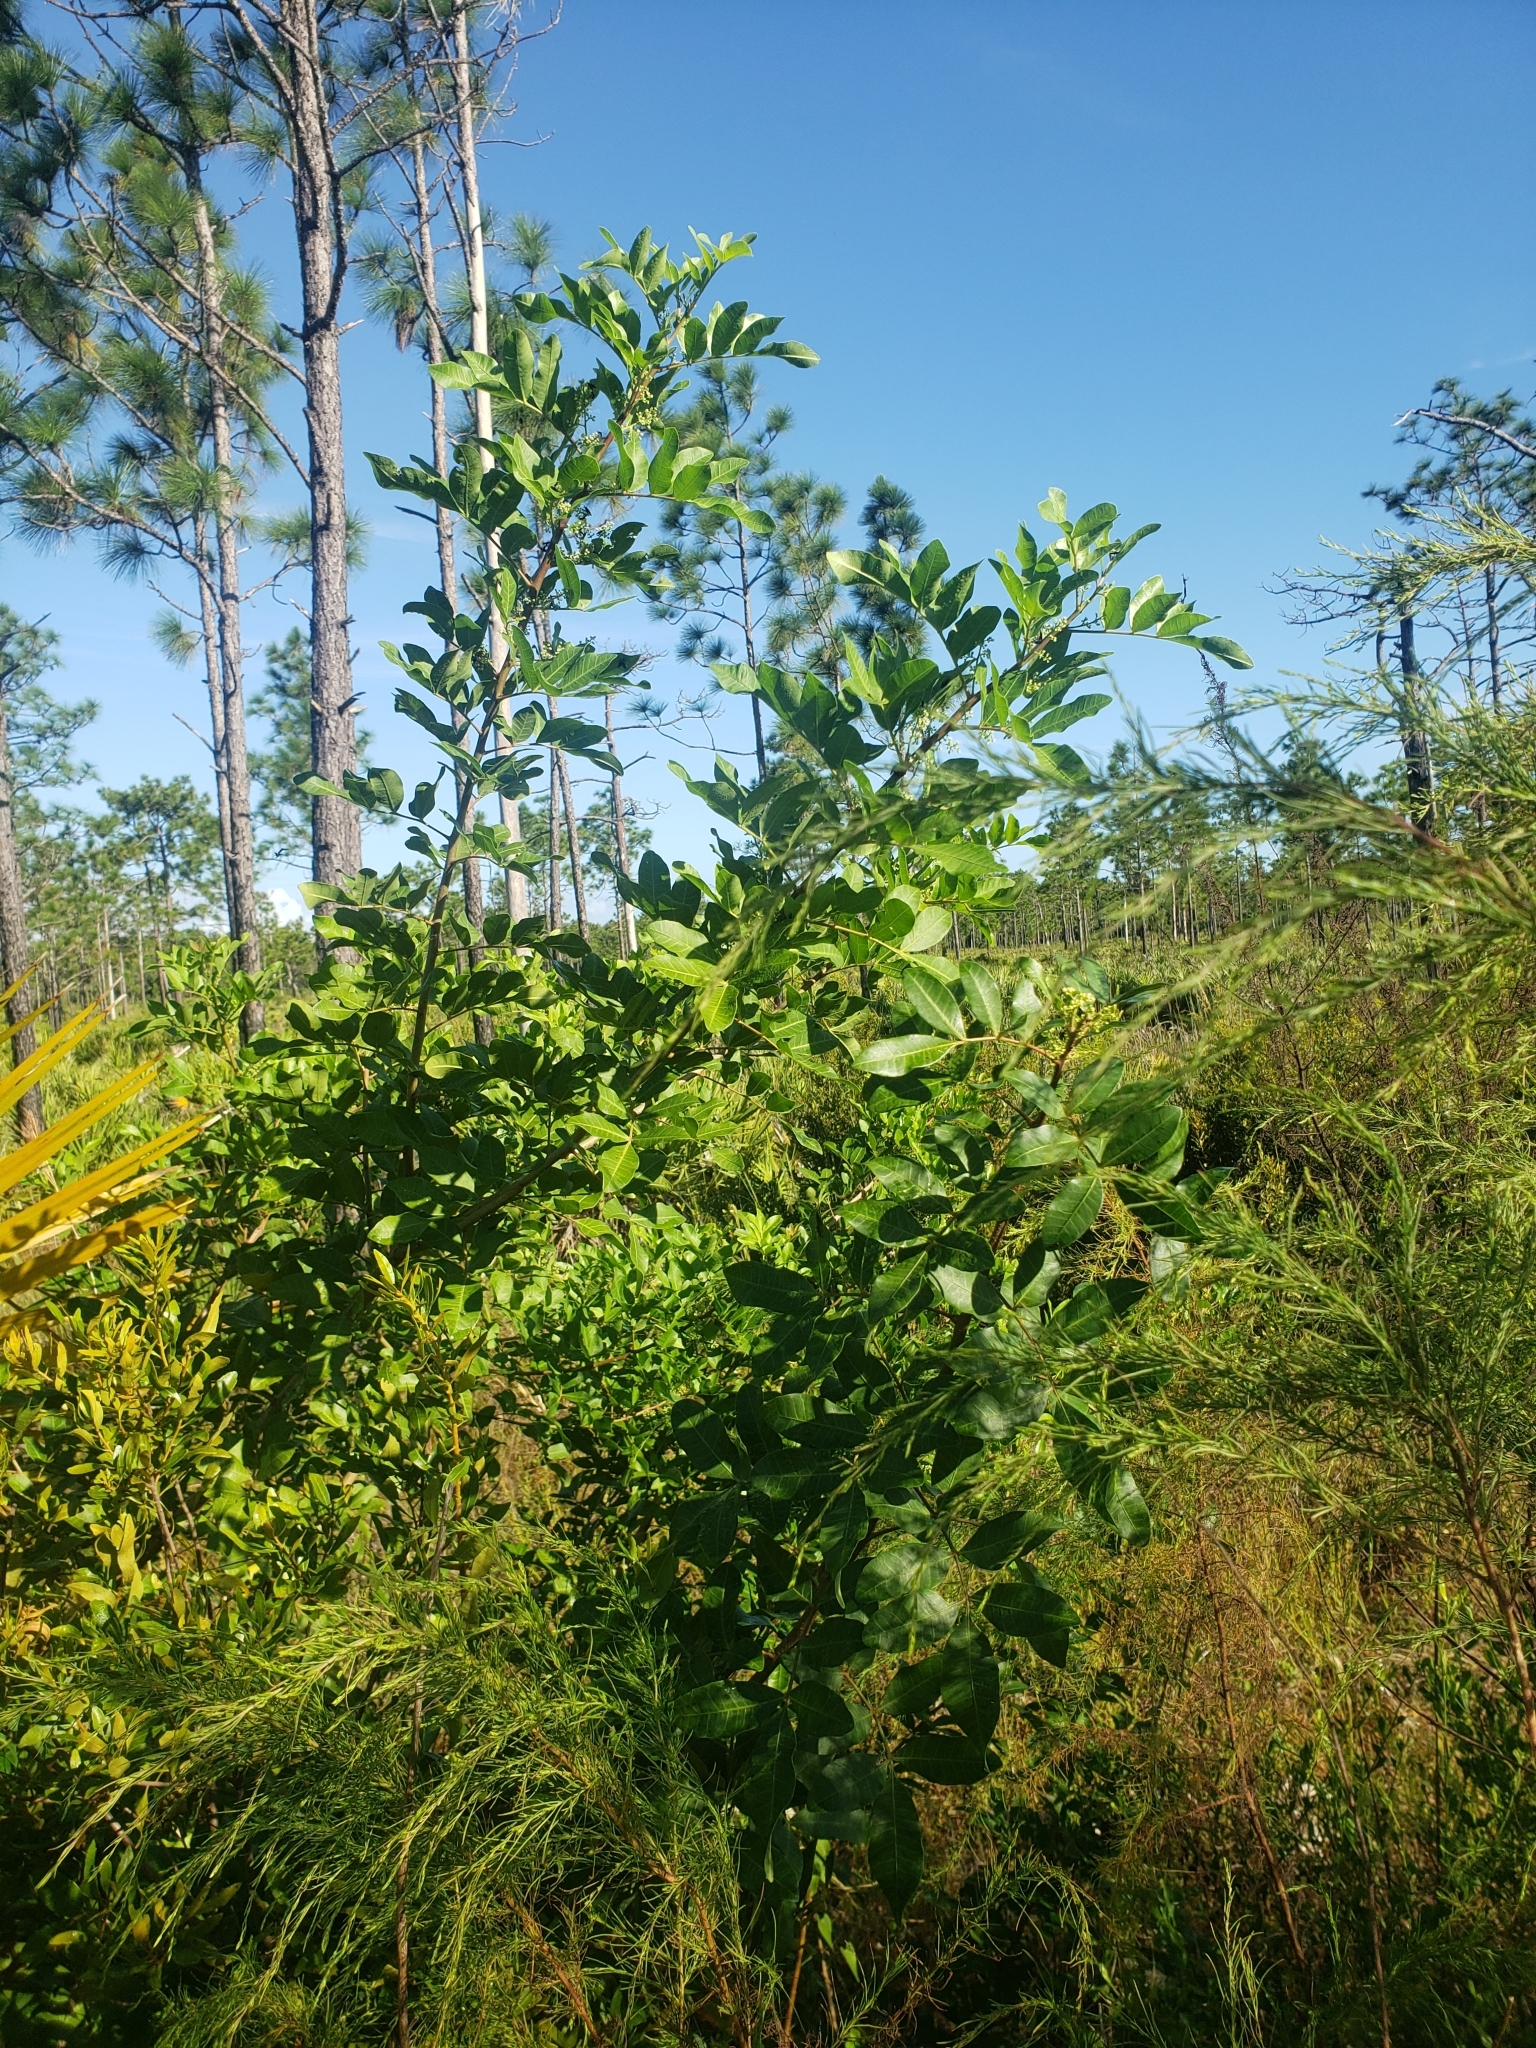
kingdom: Plantae
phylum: Tracheophyta
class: Magnoliopsida
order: Sapindales
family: Anacardiaceae
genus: Schinus
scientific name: Schinus terebinthifolia
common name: Brazilian peppertree
